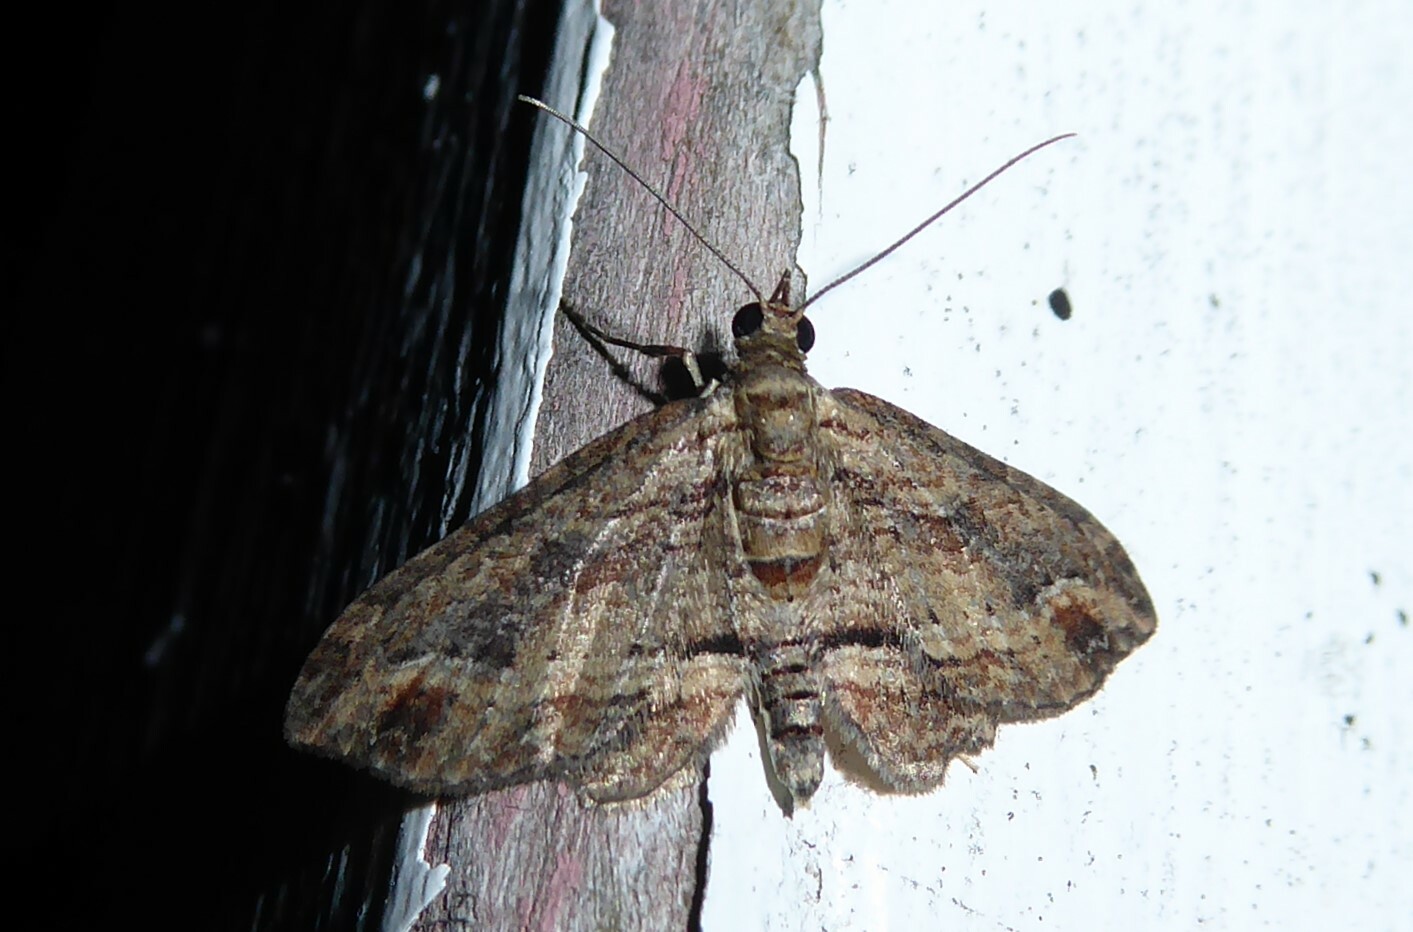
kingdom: Animalia
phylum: Arthropoda
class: Insecta
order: Lepidoptera
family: Geometridae
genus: Chloroclystis
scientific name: Chloroclystis filata
